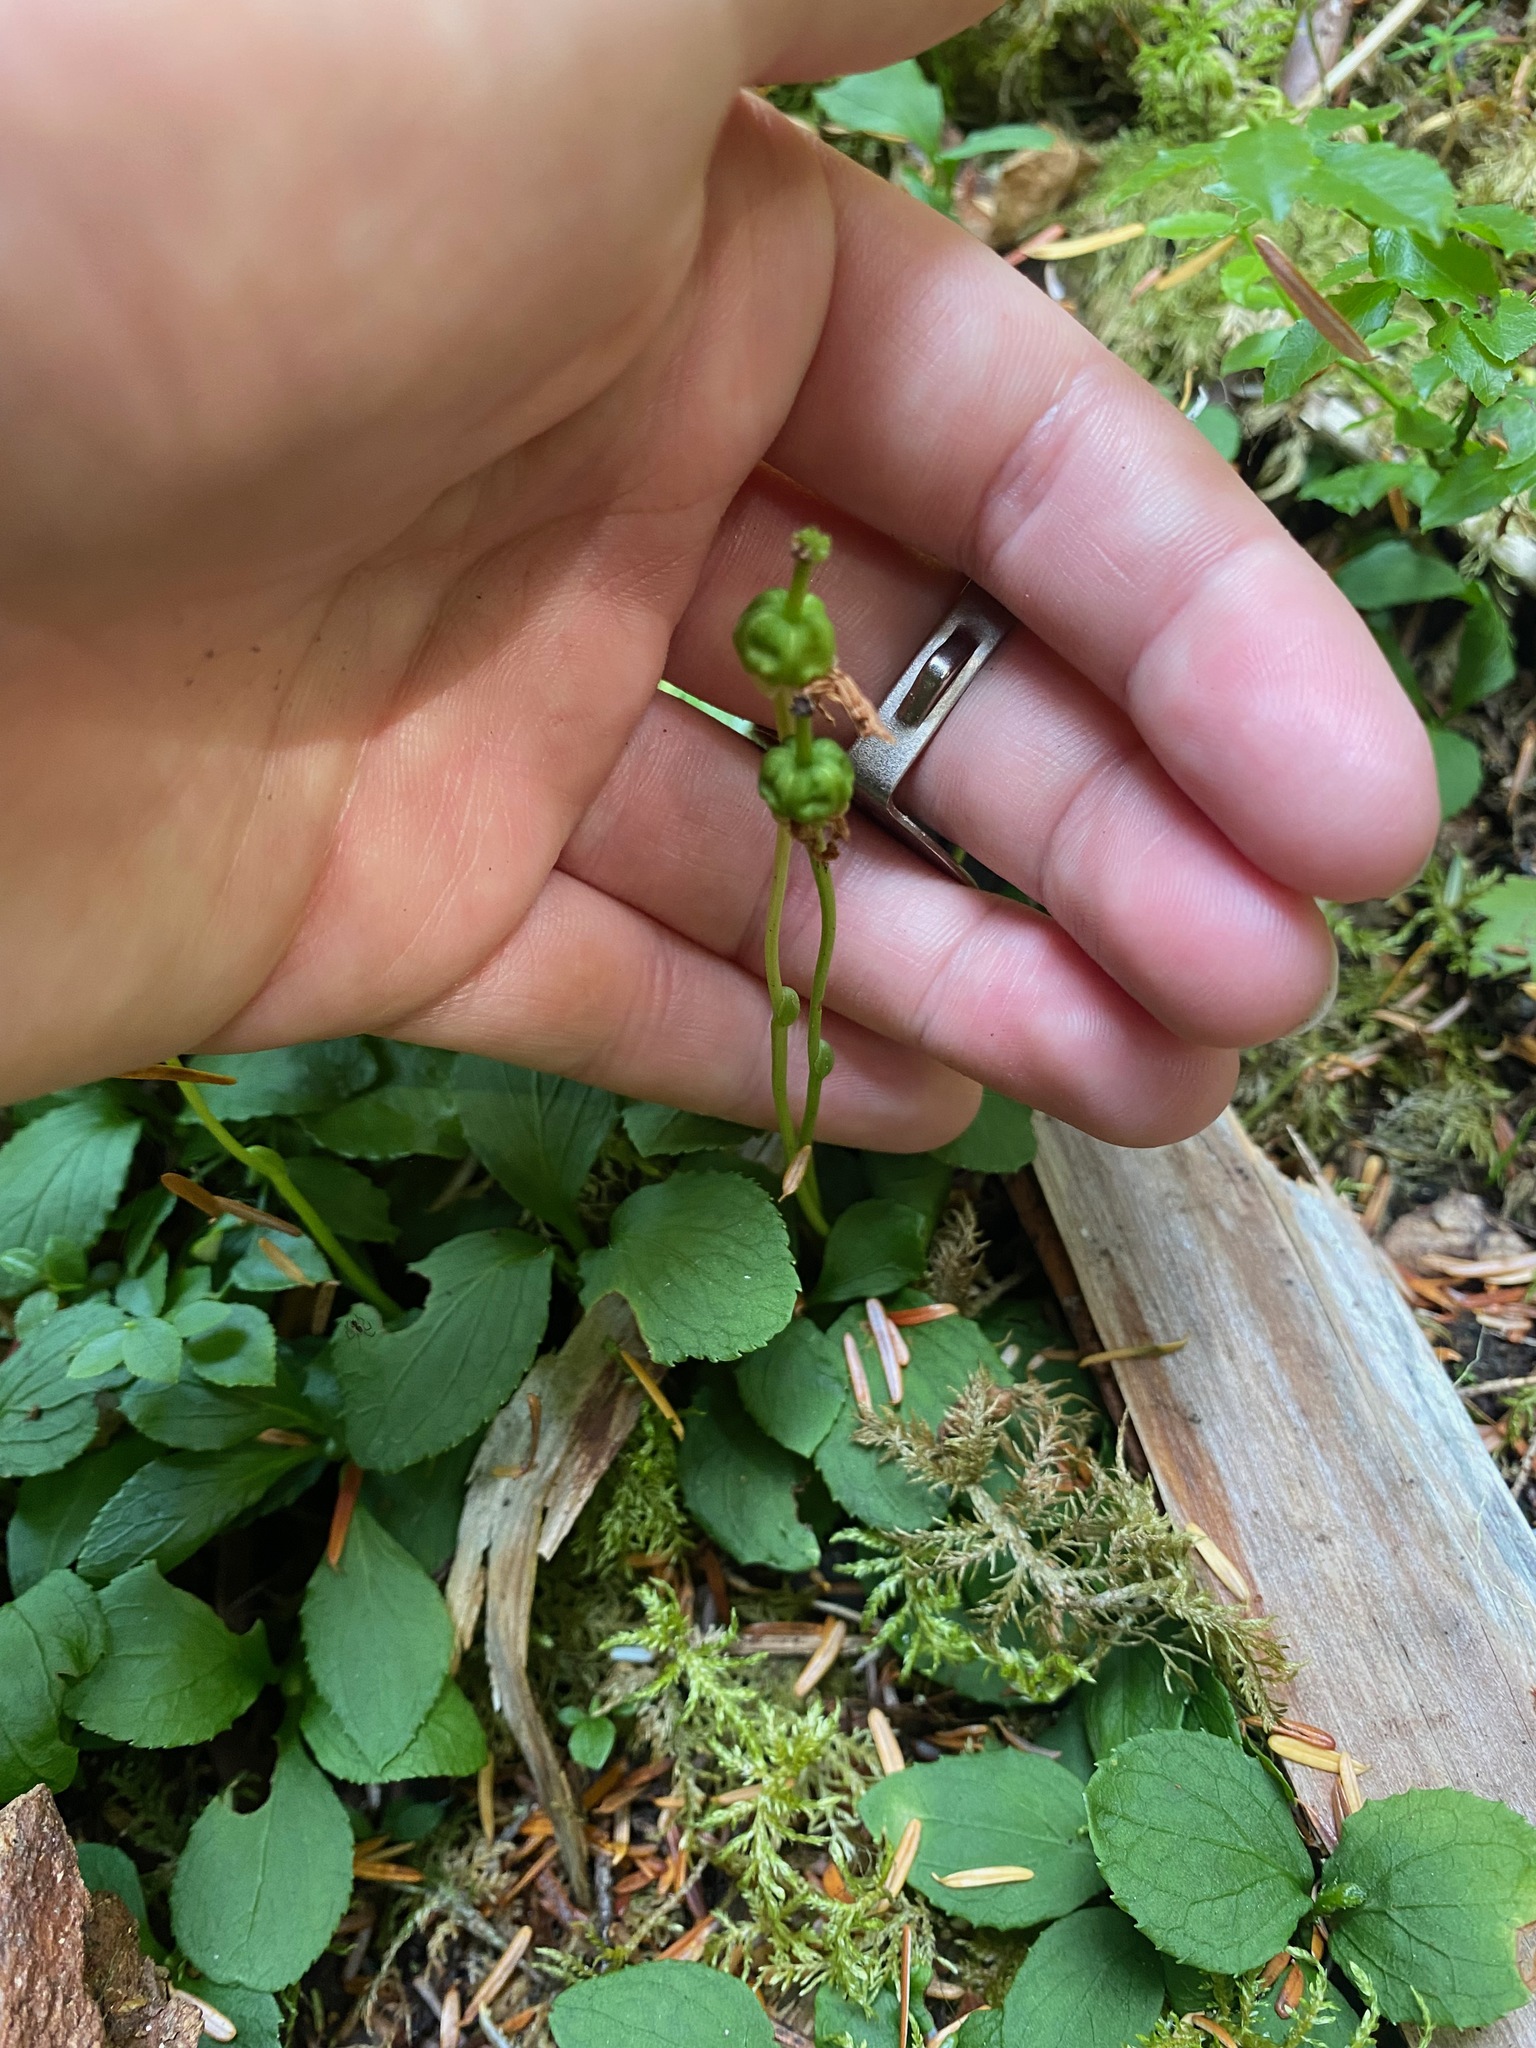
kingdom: Plantae
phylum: Tracheophyta
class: Magnoliopsida
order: Ericales
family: Ericaceae
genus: Moneses
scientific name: Moneses uniflora
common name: One-flowered wintergreen
